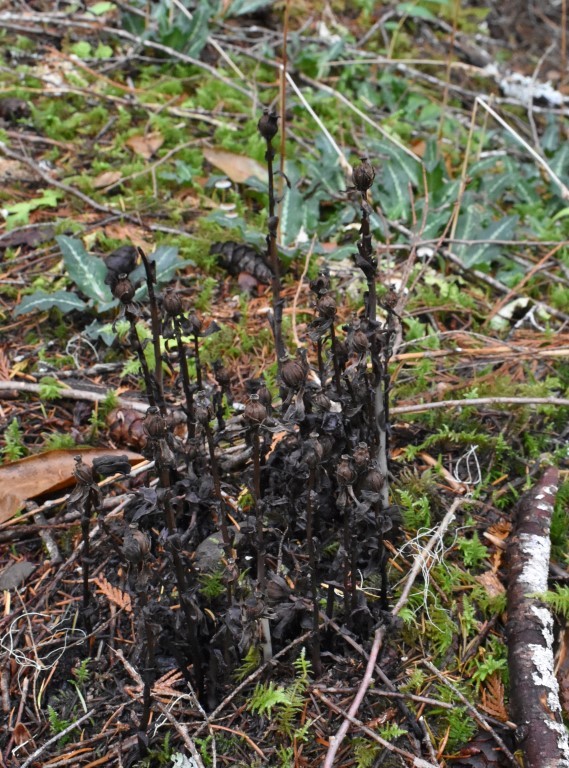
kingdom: Plantae
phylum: Tracheophyta
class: Magnoliopsida
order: Ericales
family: Ericaceae
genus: Monotropa
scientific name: Monotropa uniflora
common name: Convulsion root
